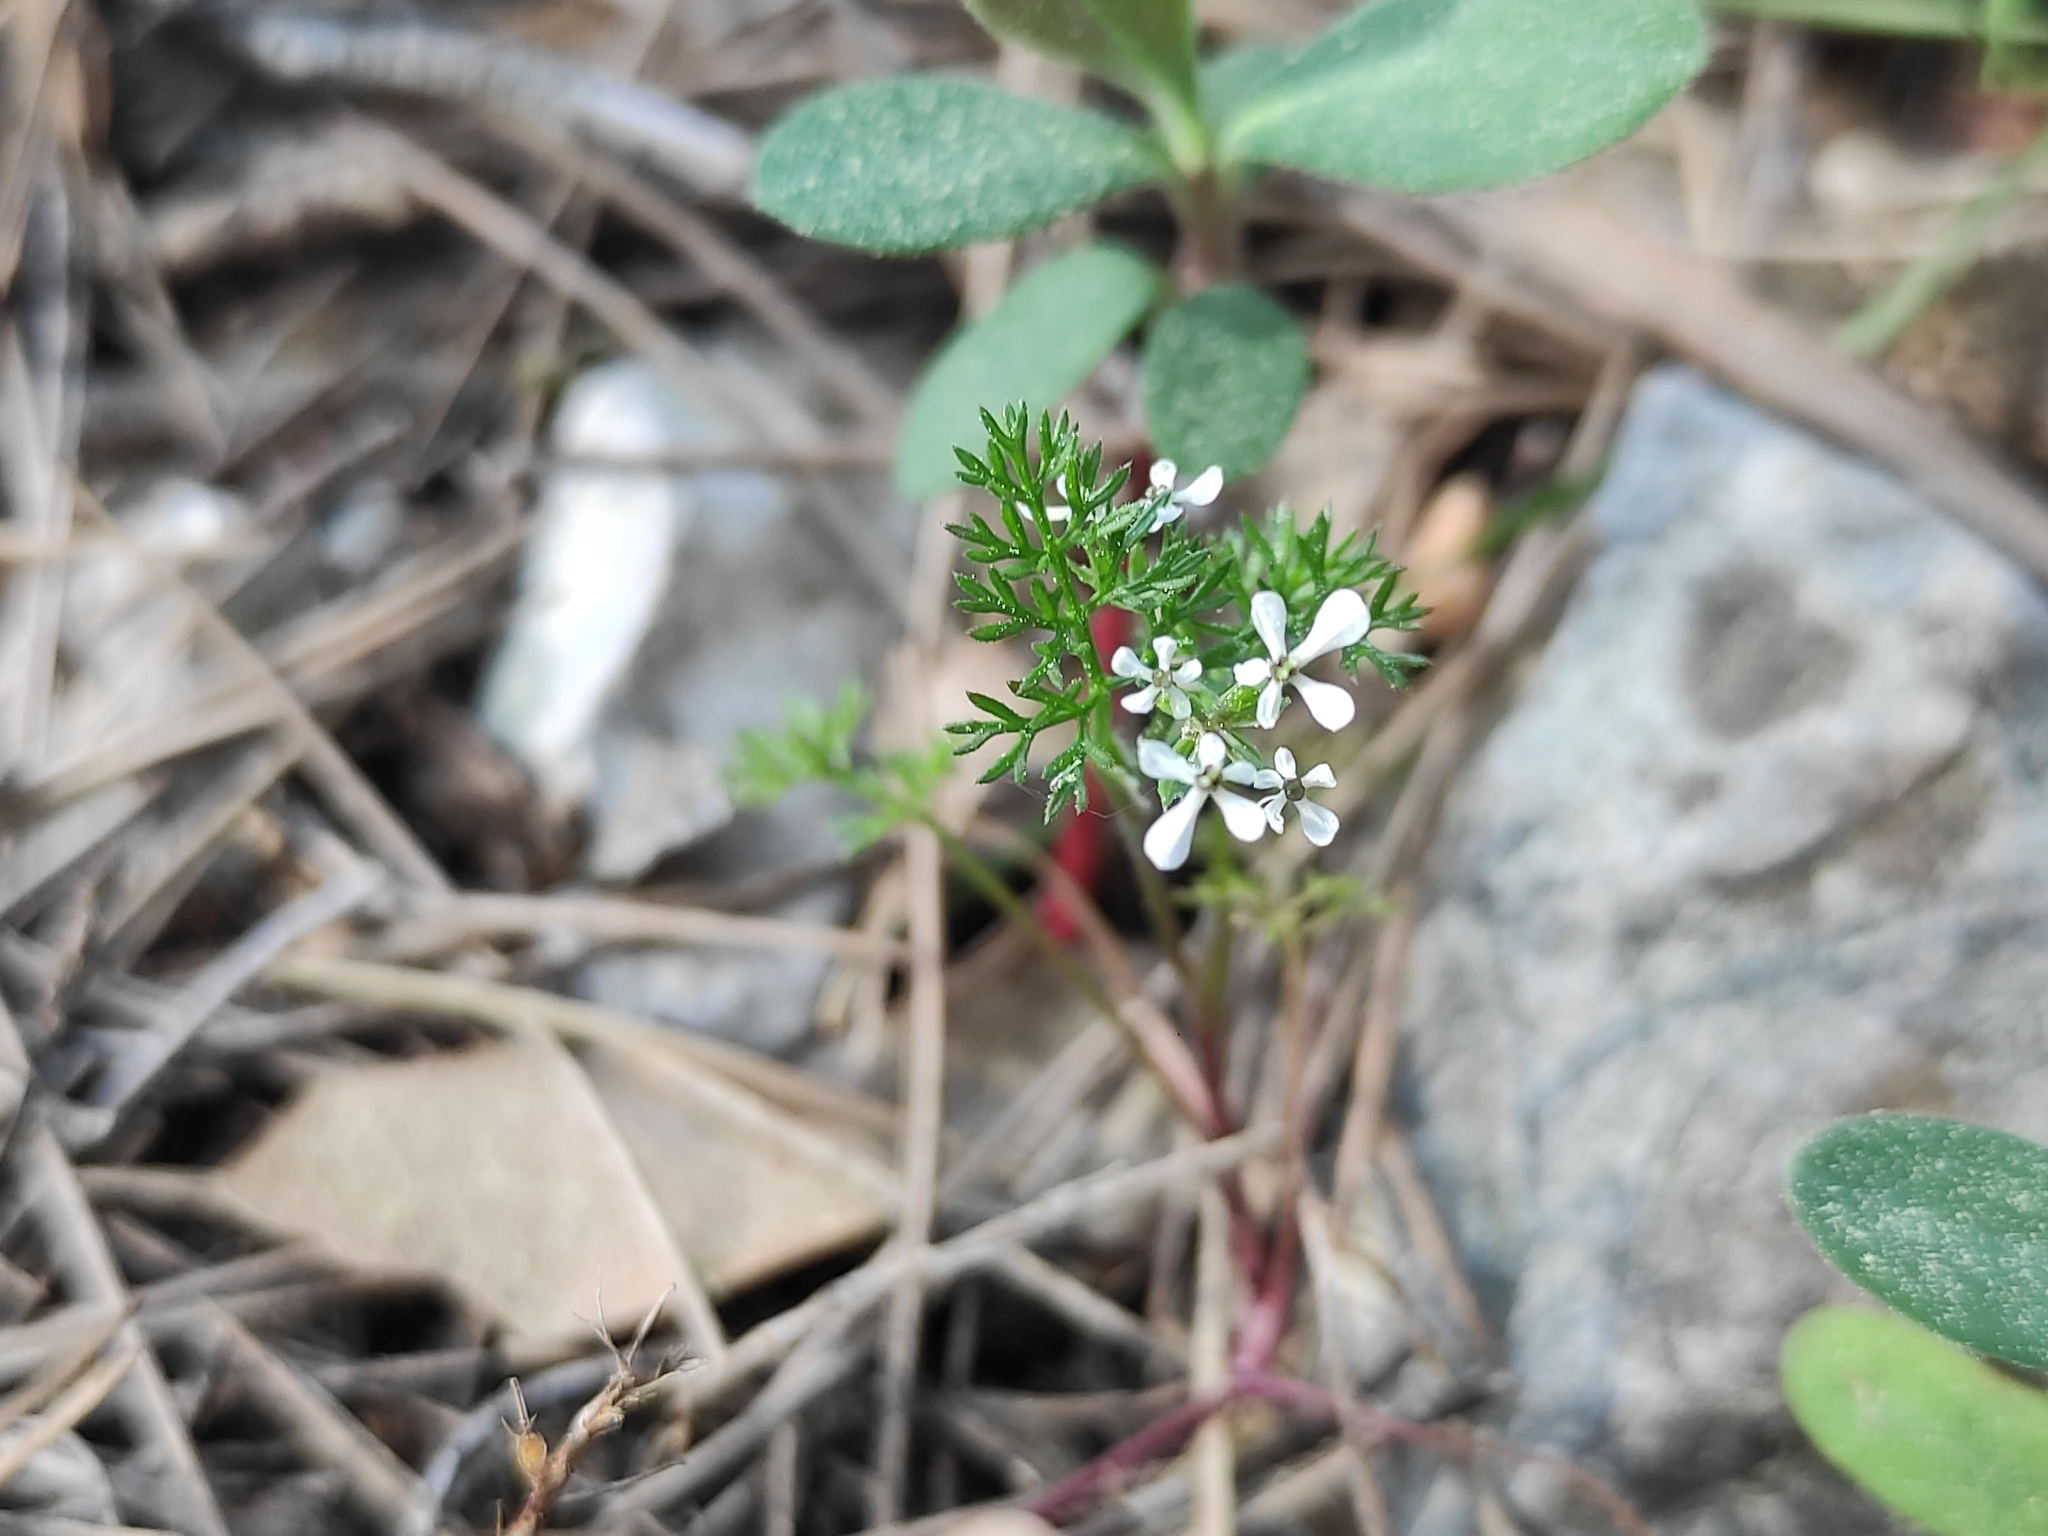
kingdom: Plantae
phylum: Tracheophyta
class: Magnoliopsida
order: Apiales
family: Apiaceae
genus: Scandix
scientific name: Scandix pecten-veneris
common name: Shepherd's-needle
